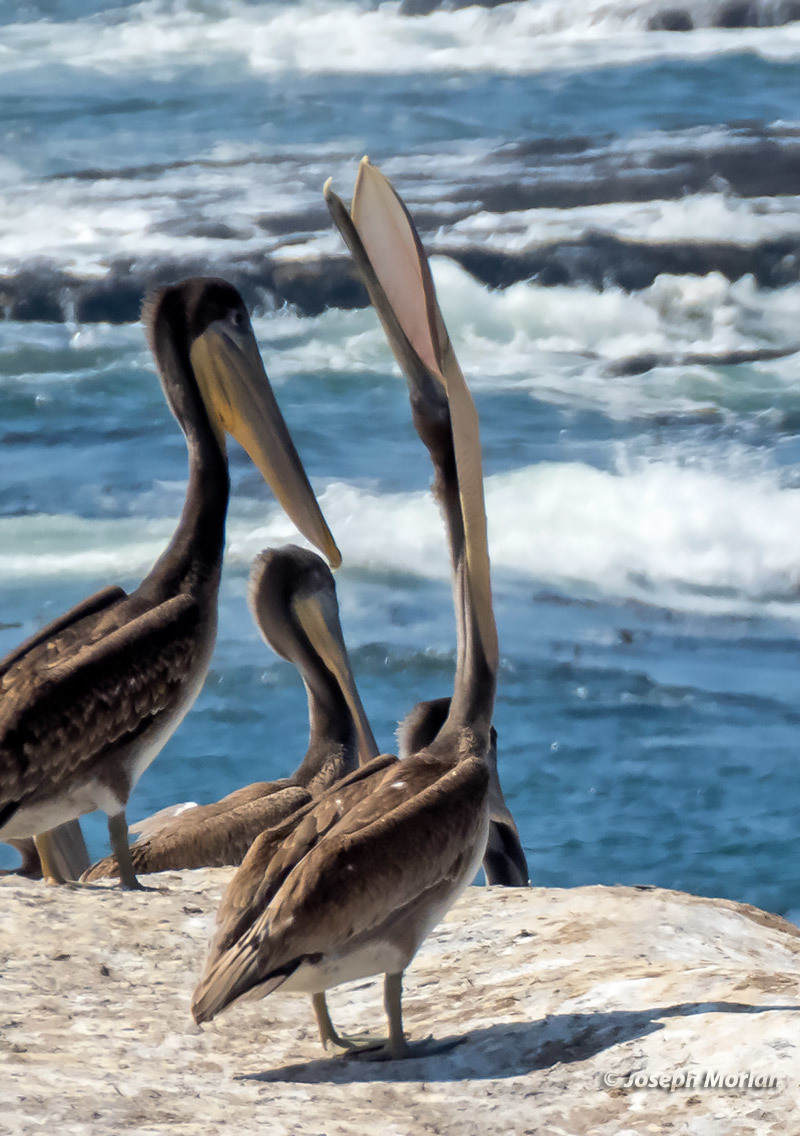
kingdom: Animalia
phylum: Chordata
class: Aves
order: Pelecaniformes
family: Pelecanidae
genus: Pelecanus
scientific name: Pelecanus occidentalis
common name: Brown pelican
